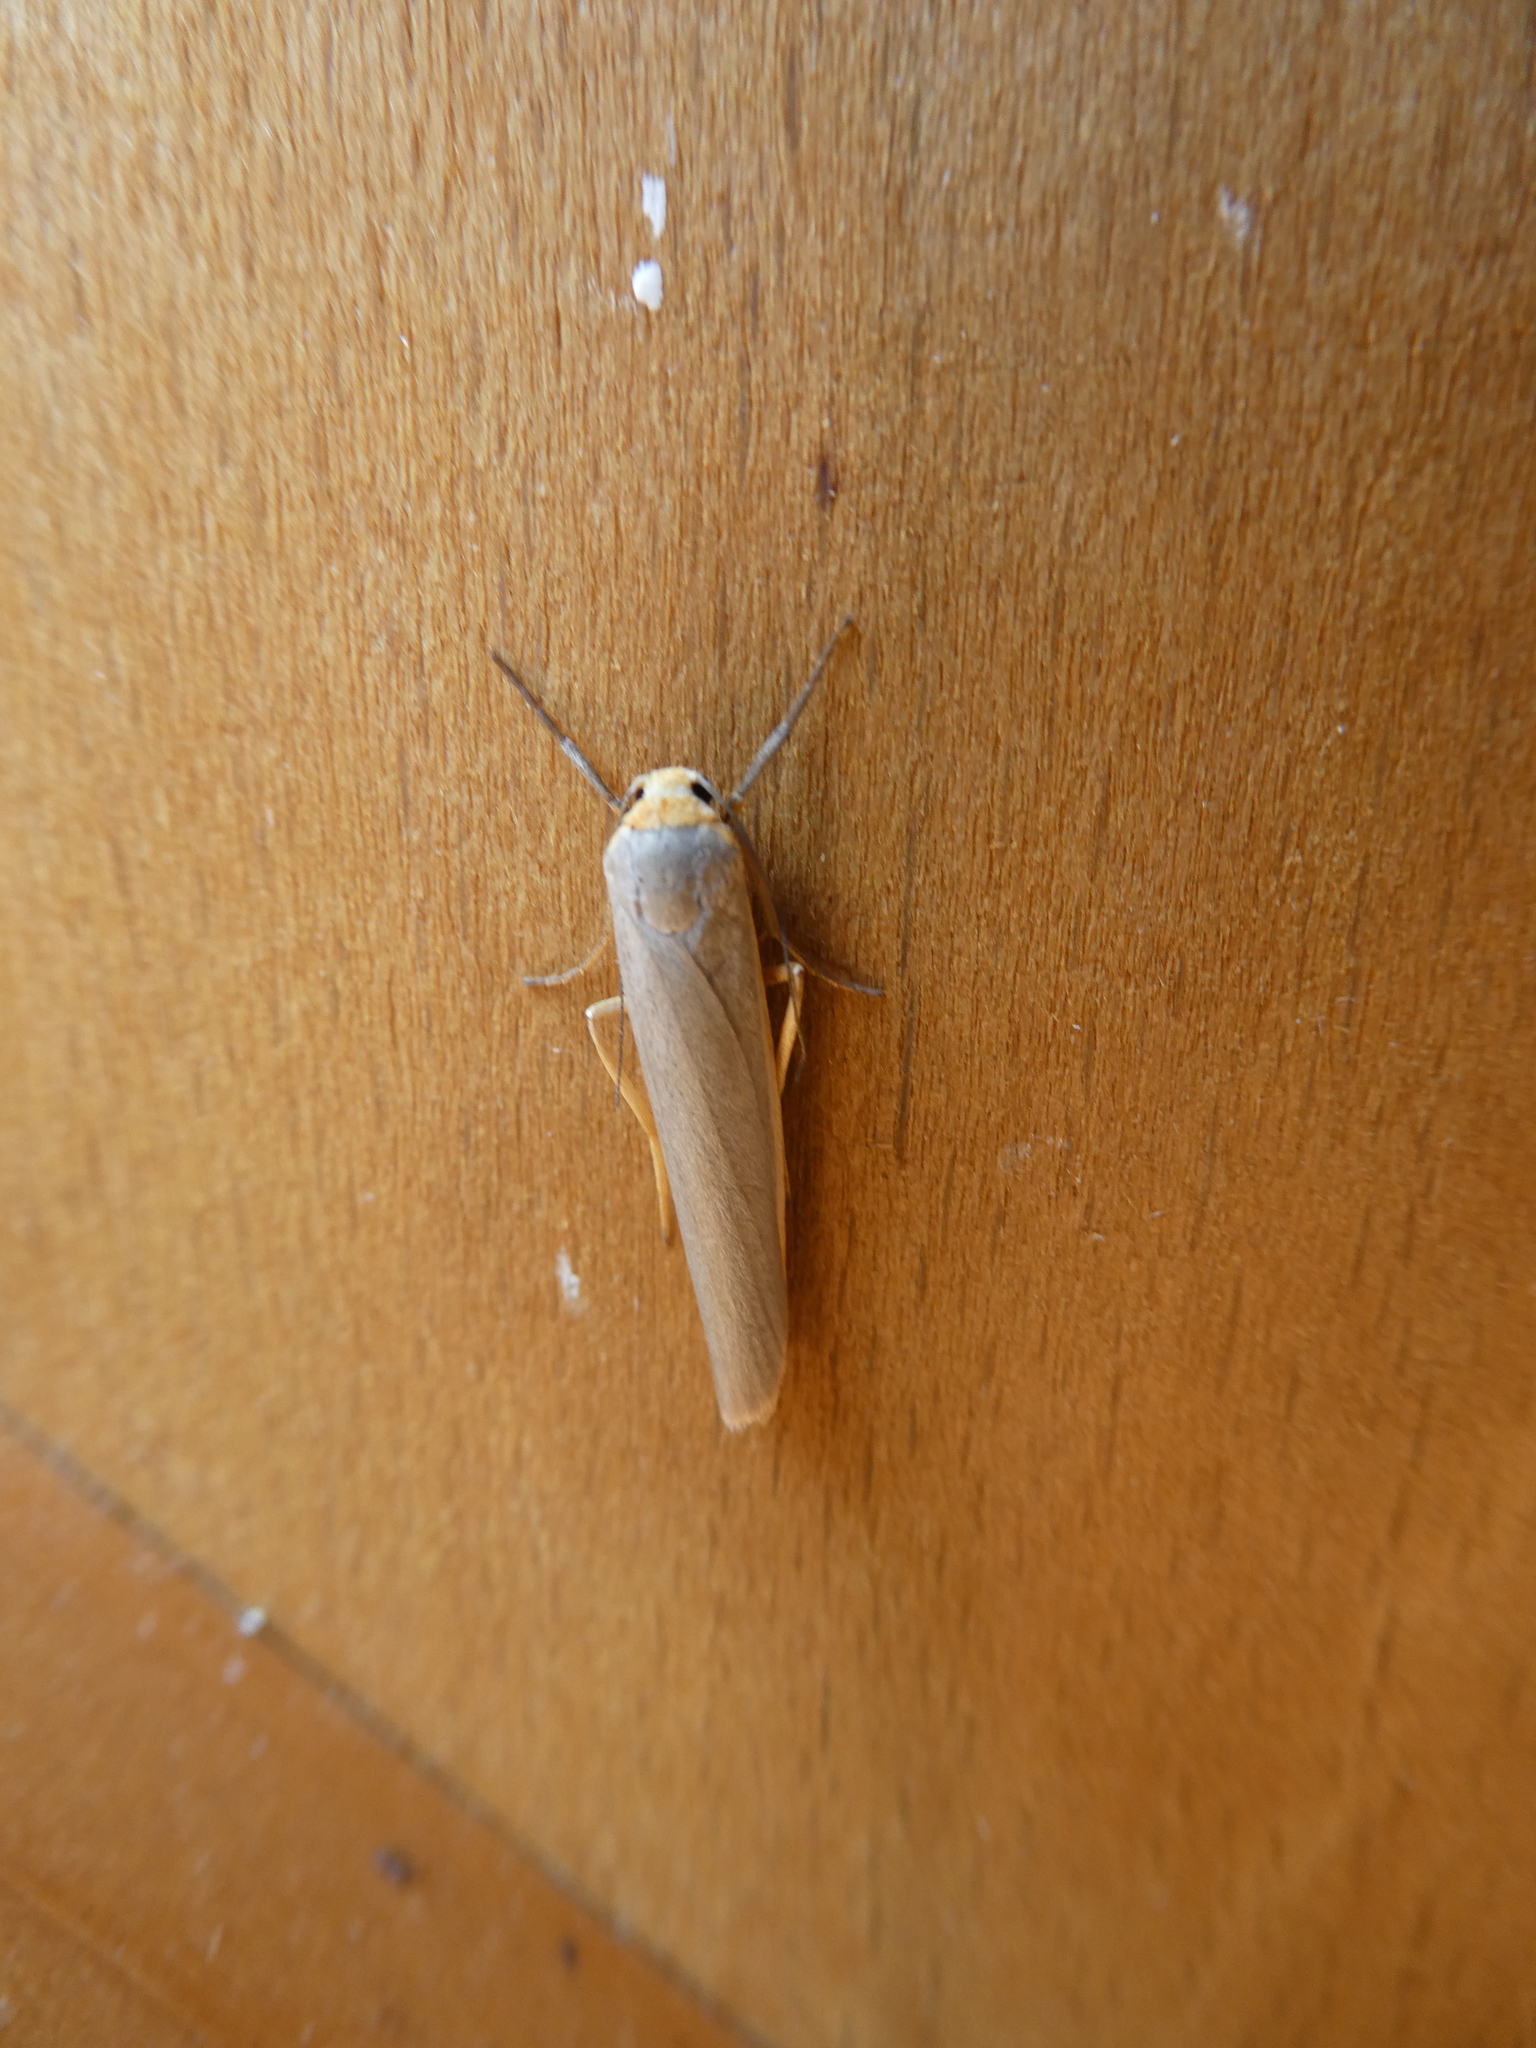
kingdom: Animalia
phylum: Arthropoda
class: Insecta
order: Lepidoptera
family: Erebidae
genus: Manulea
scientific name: Manulea complana
